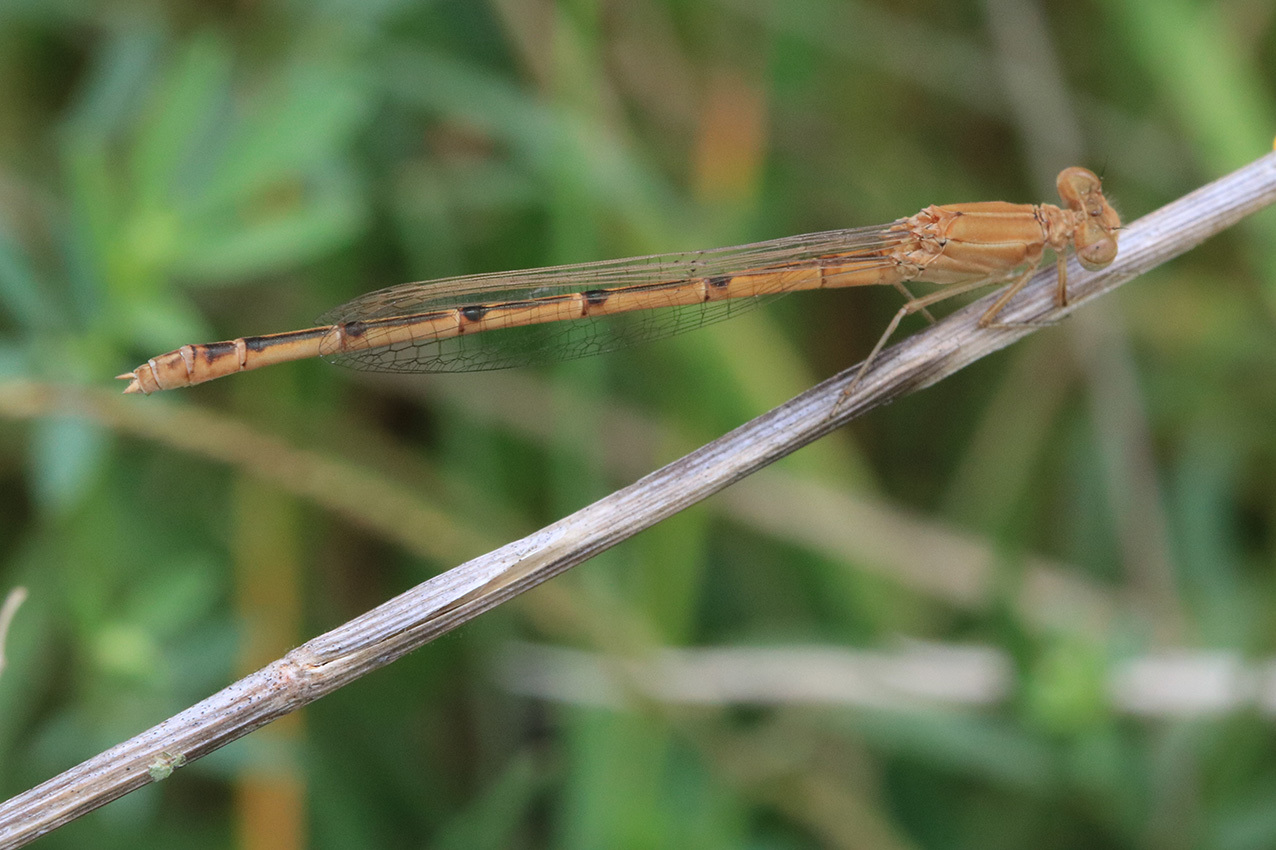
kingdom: Animalia
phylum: Arthropoda
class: Insecta
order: Odonata
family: Coenagrionidae
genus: Oxyagrion
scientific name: Oxyagrion rubidum
